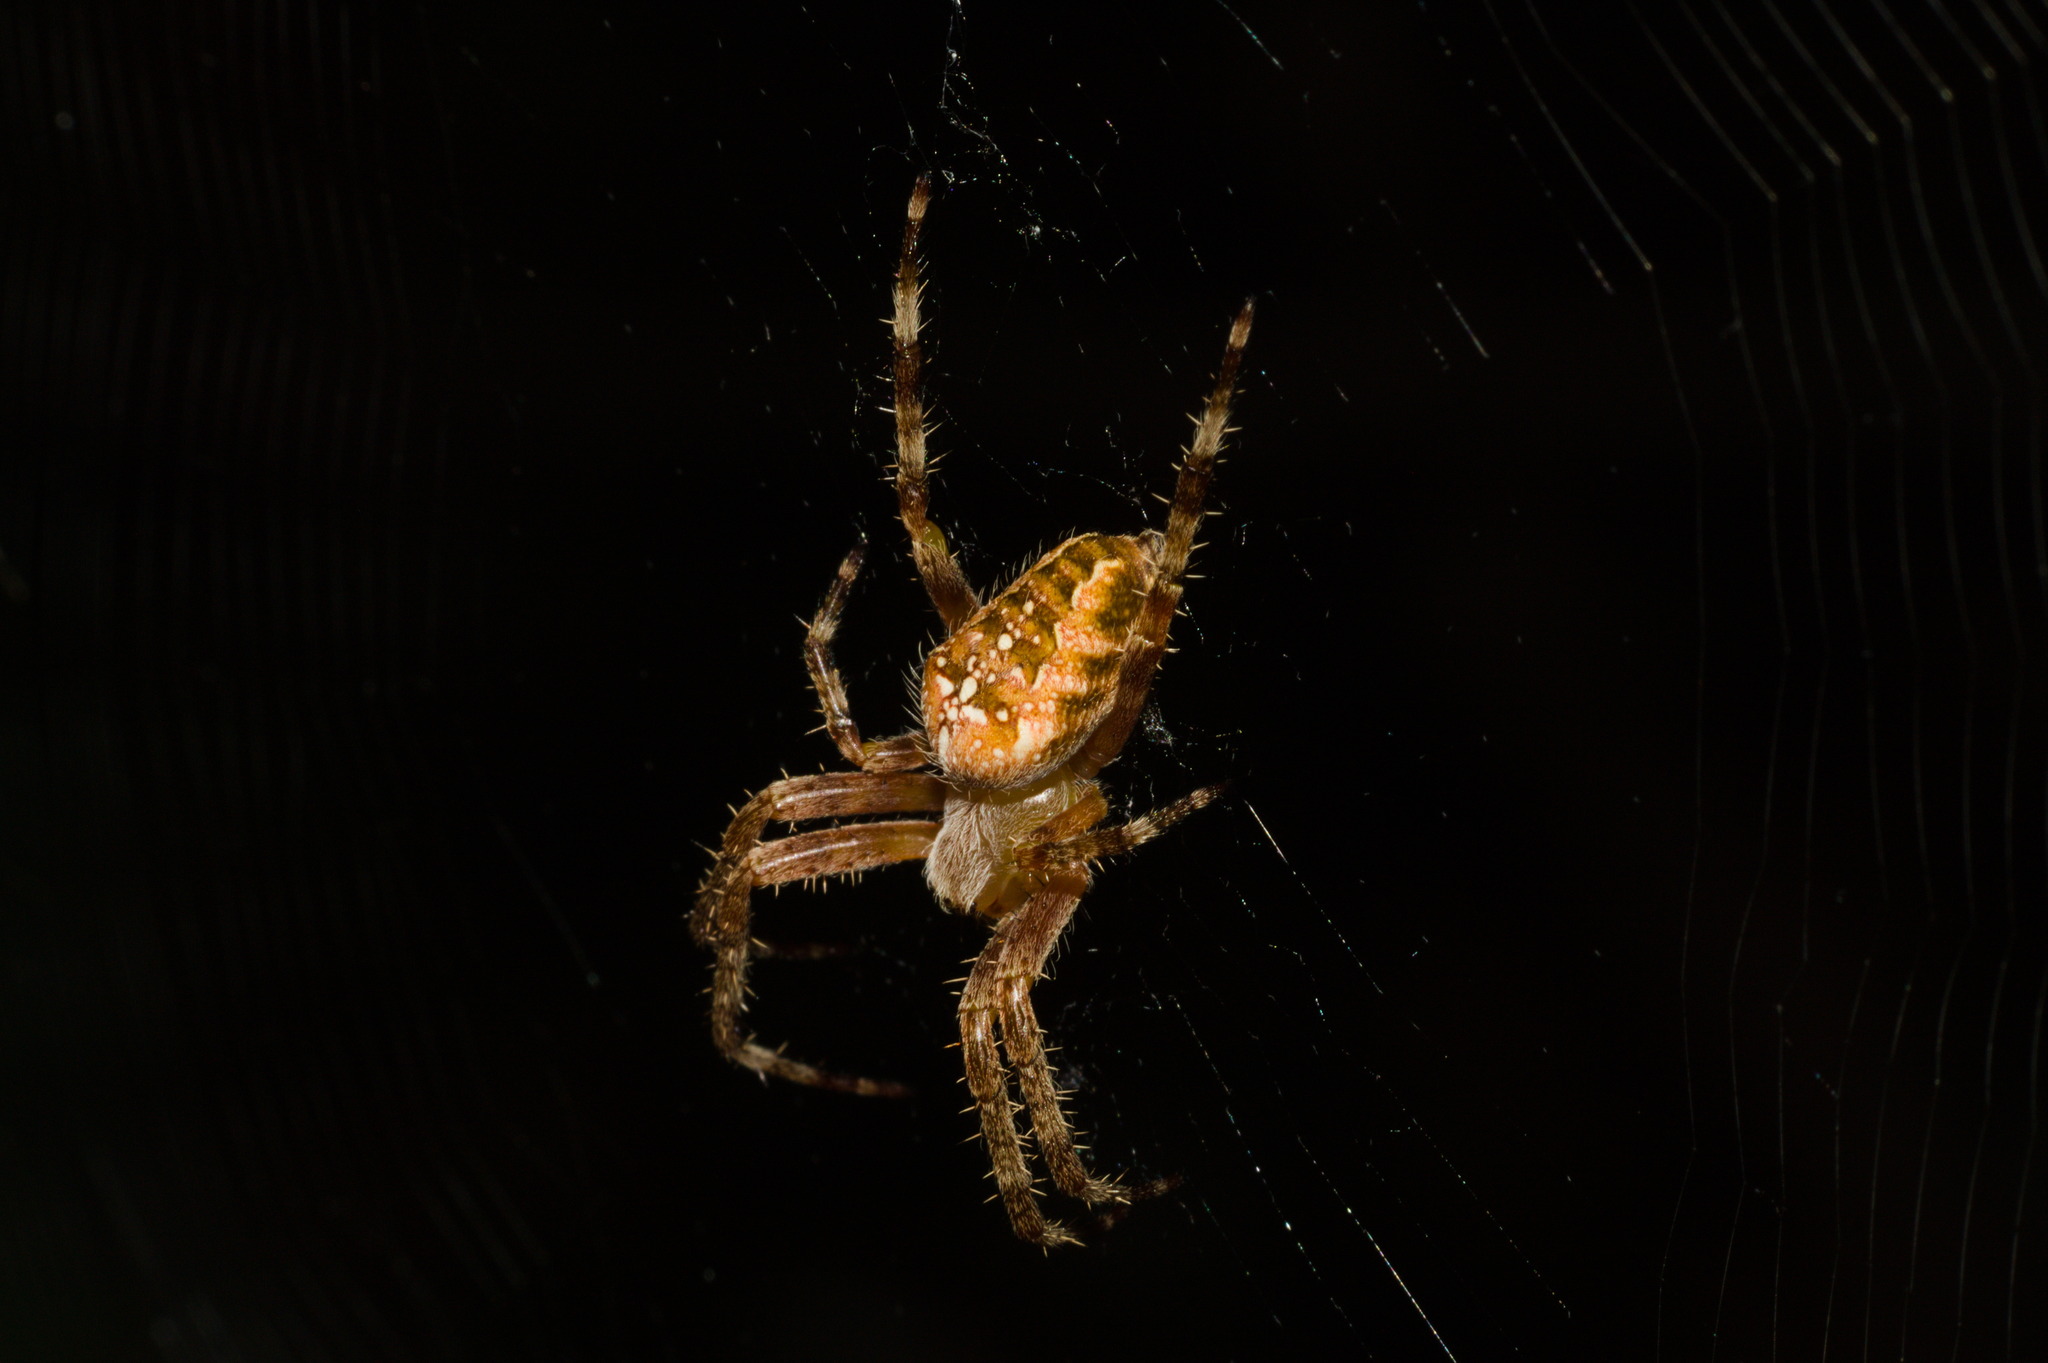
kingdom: Animalia
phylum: Arthropoda
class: Arachnida
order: Araneae
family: Araneidae
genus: Araneus
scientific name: Araneus diadematus
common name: Cross orbweaver
